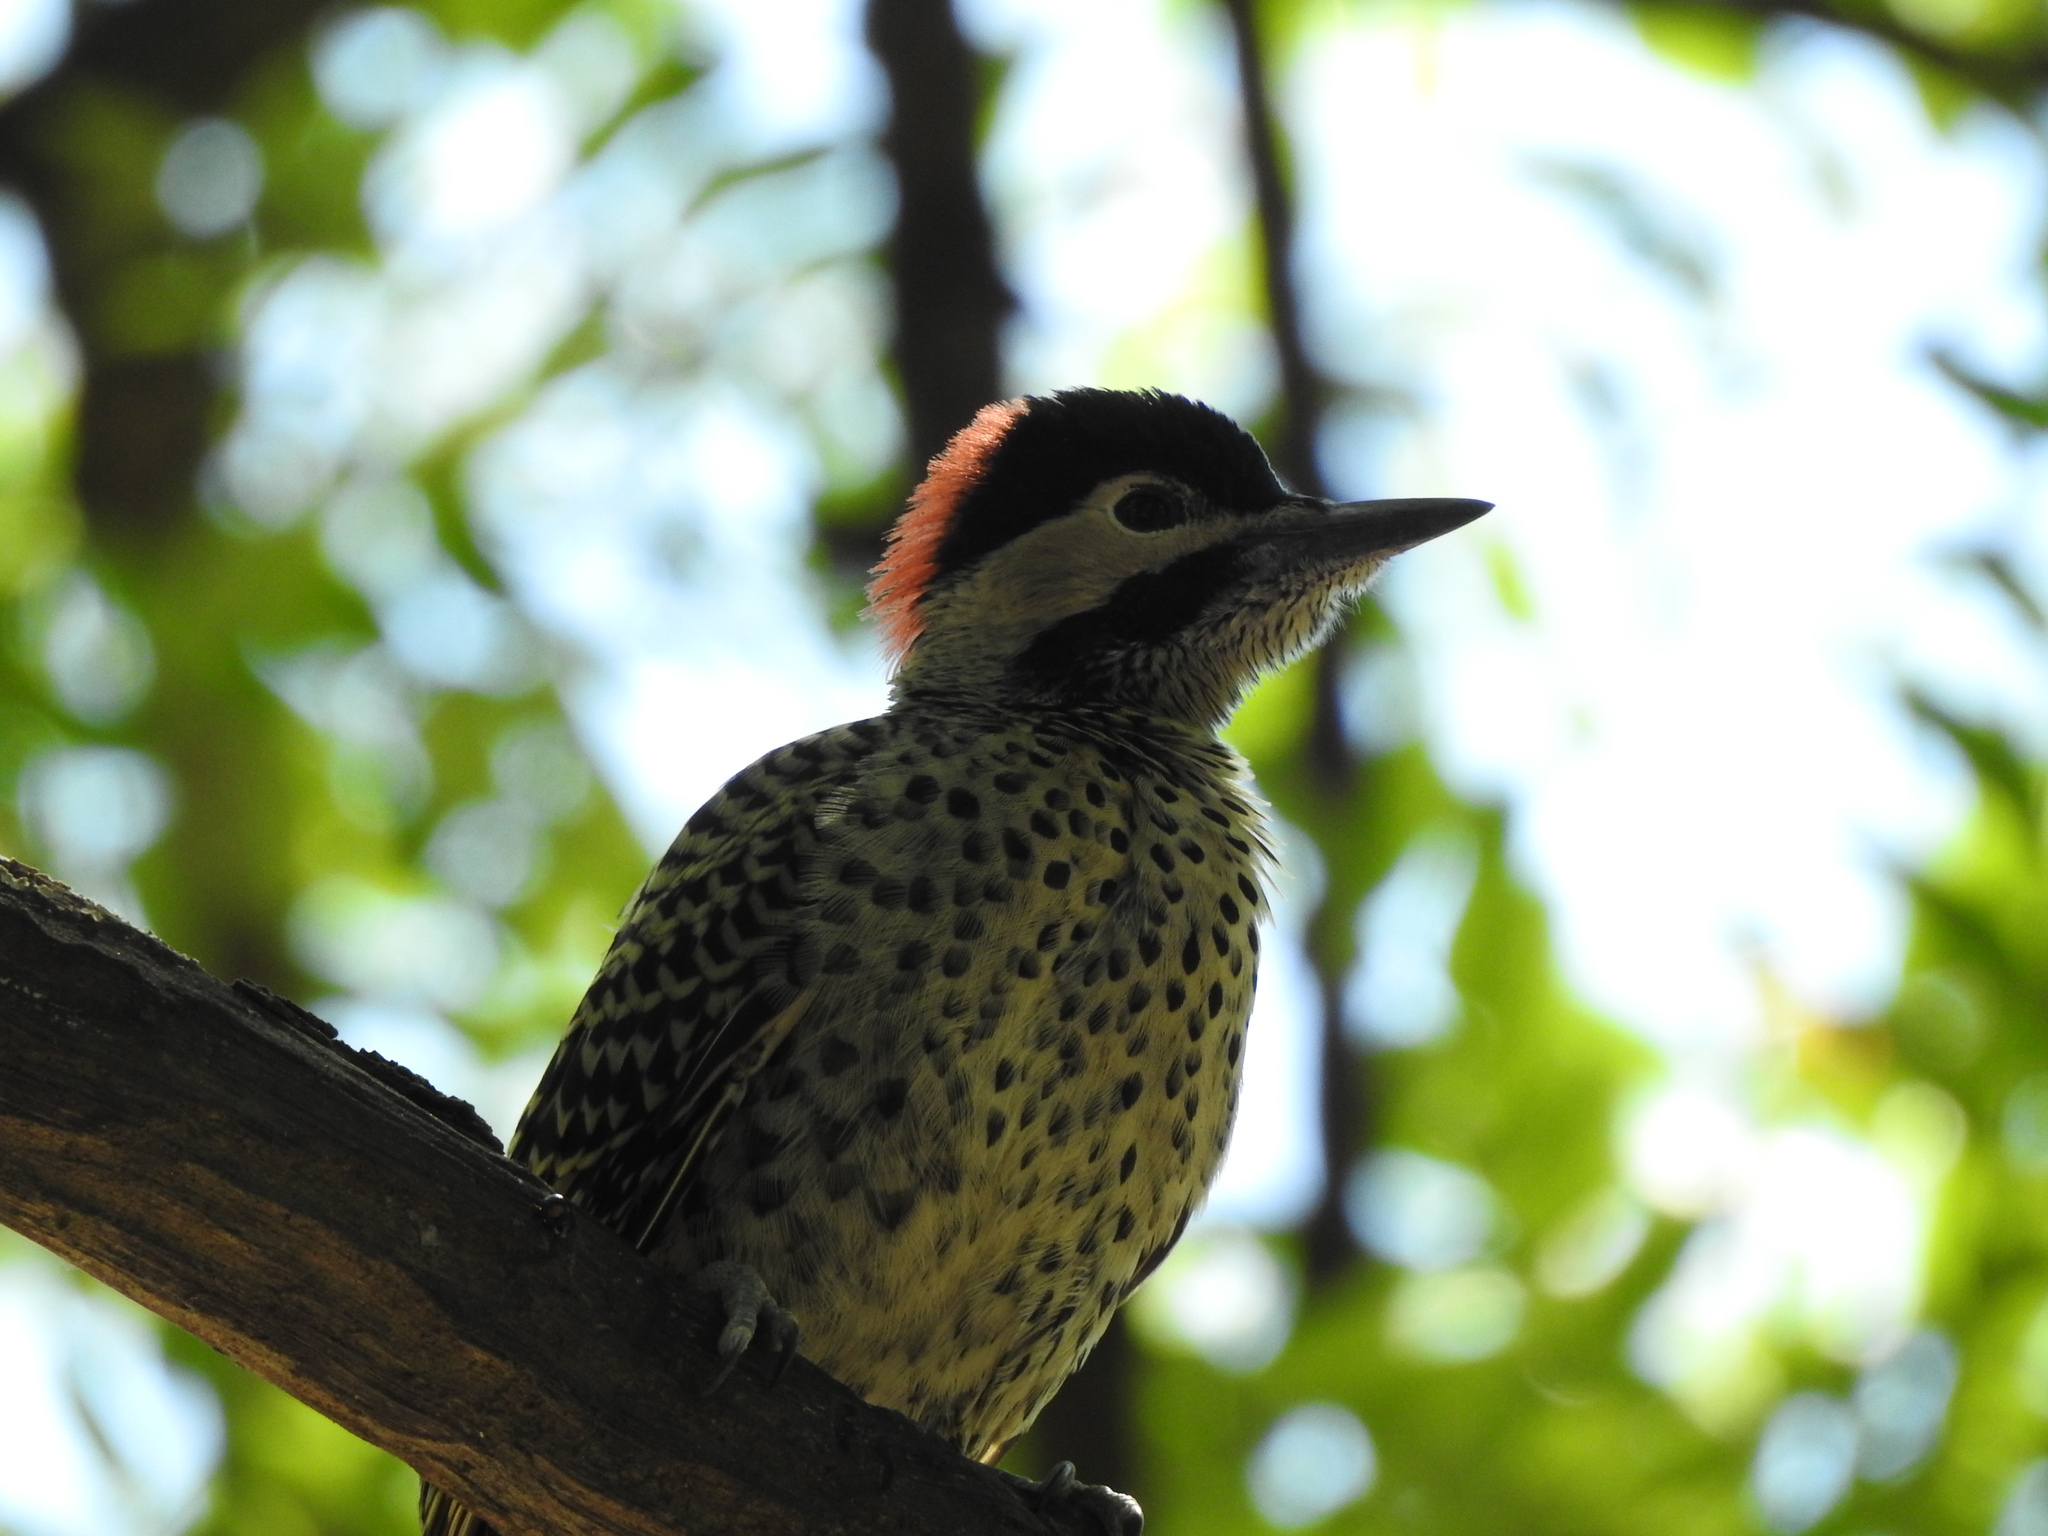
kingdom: Animalia
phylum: Chordata
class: Aves
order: Piciformes
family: Picidae
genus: Colaptes
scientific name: Colaptes melanochloros
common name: Green-barred woodpecker
